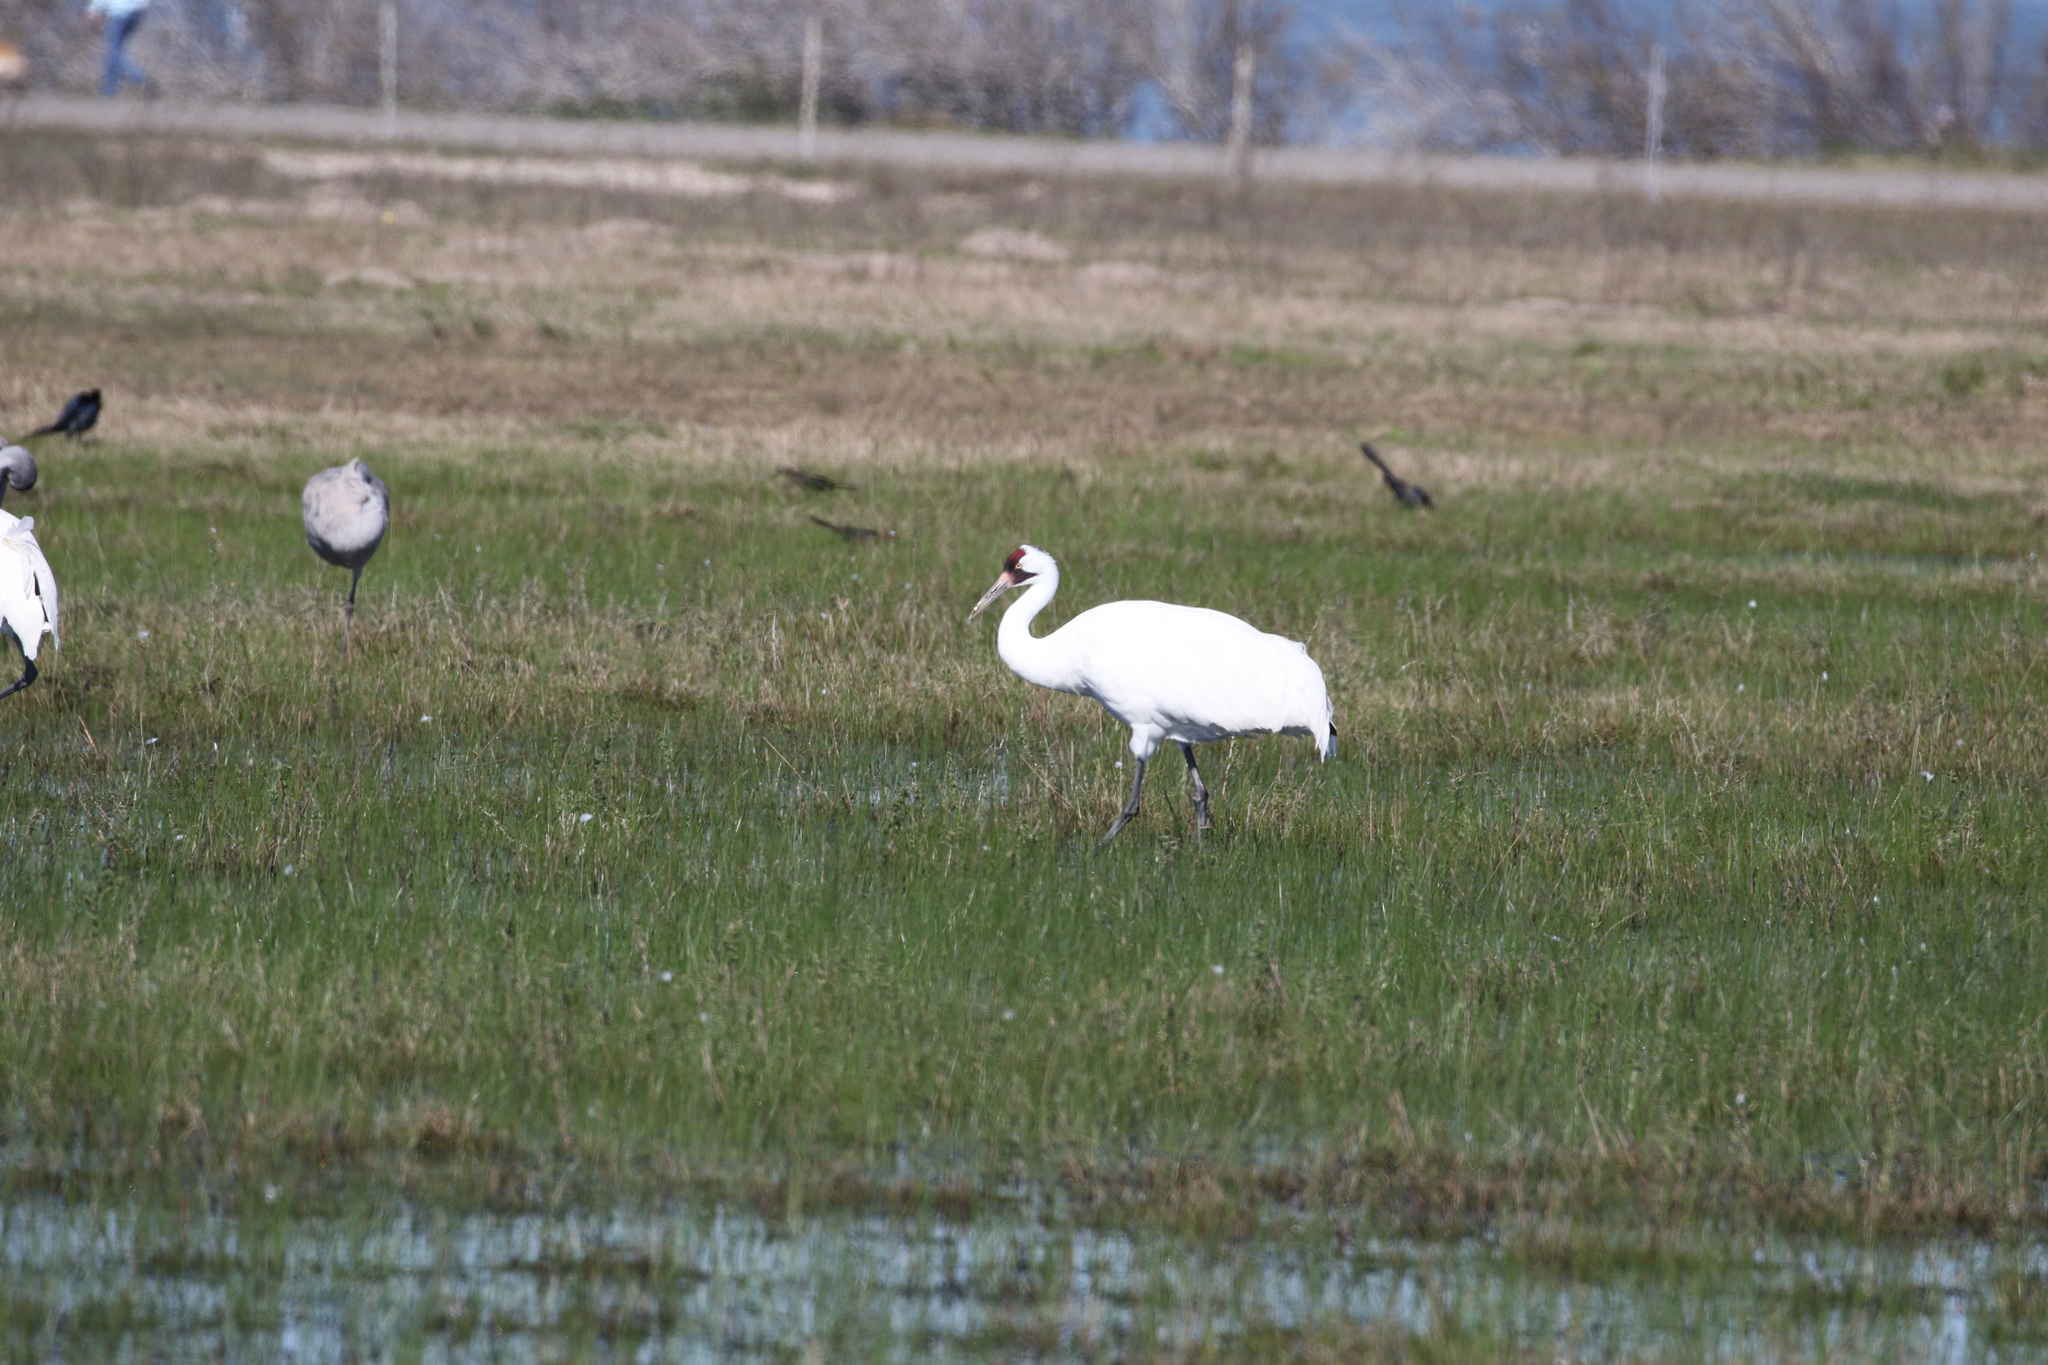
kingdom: Animalia
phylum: Chordata
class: Aves
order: Gruiformes
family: Gruidae
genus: Grus
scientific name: Grus americana
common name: Whooping crane
